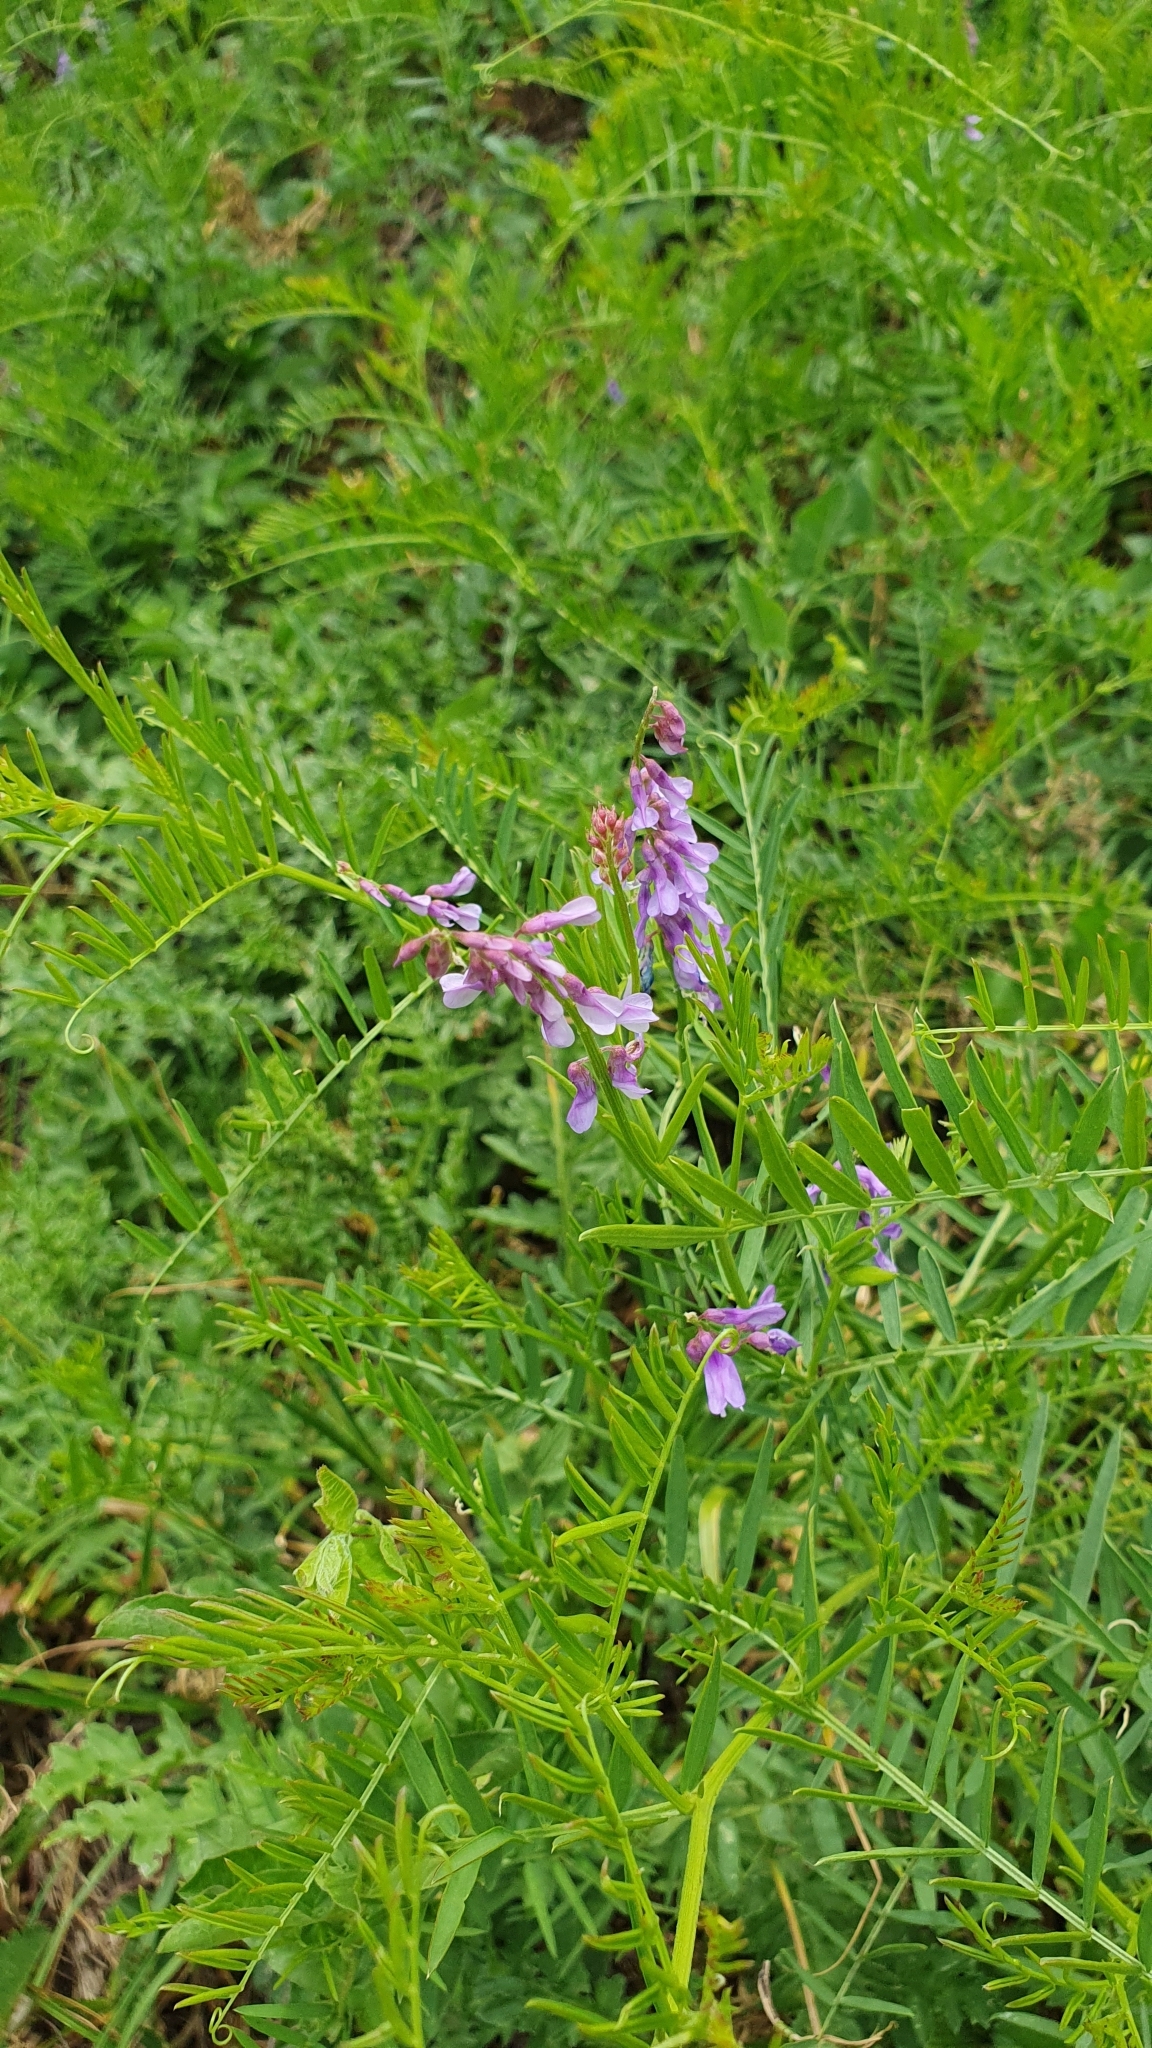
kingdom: Plantae
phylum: Tracheophyta
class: Magnoliopsida
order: Fabales
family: Fabaceae
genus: Vicia
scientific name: Vicia tenuifolia
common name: Fine-leaved vetch
